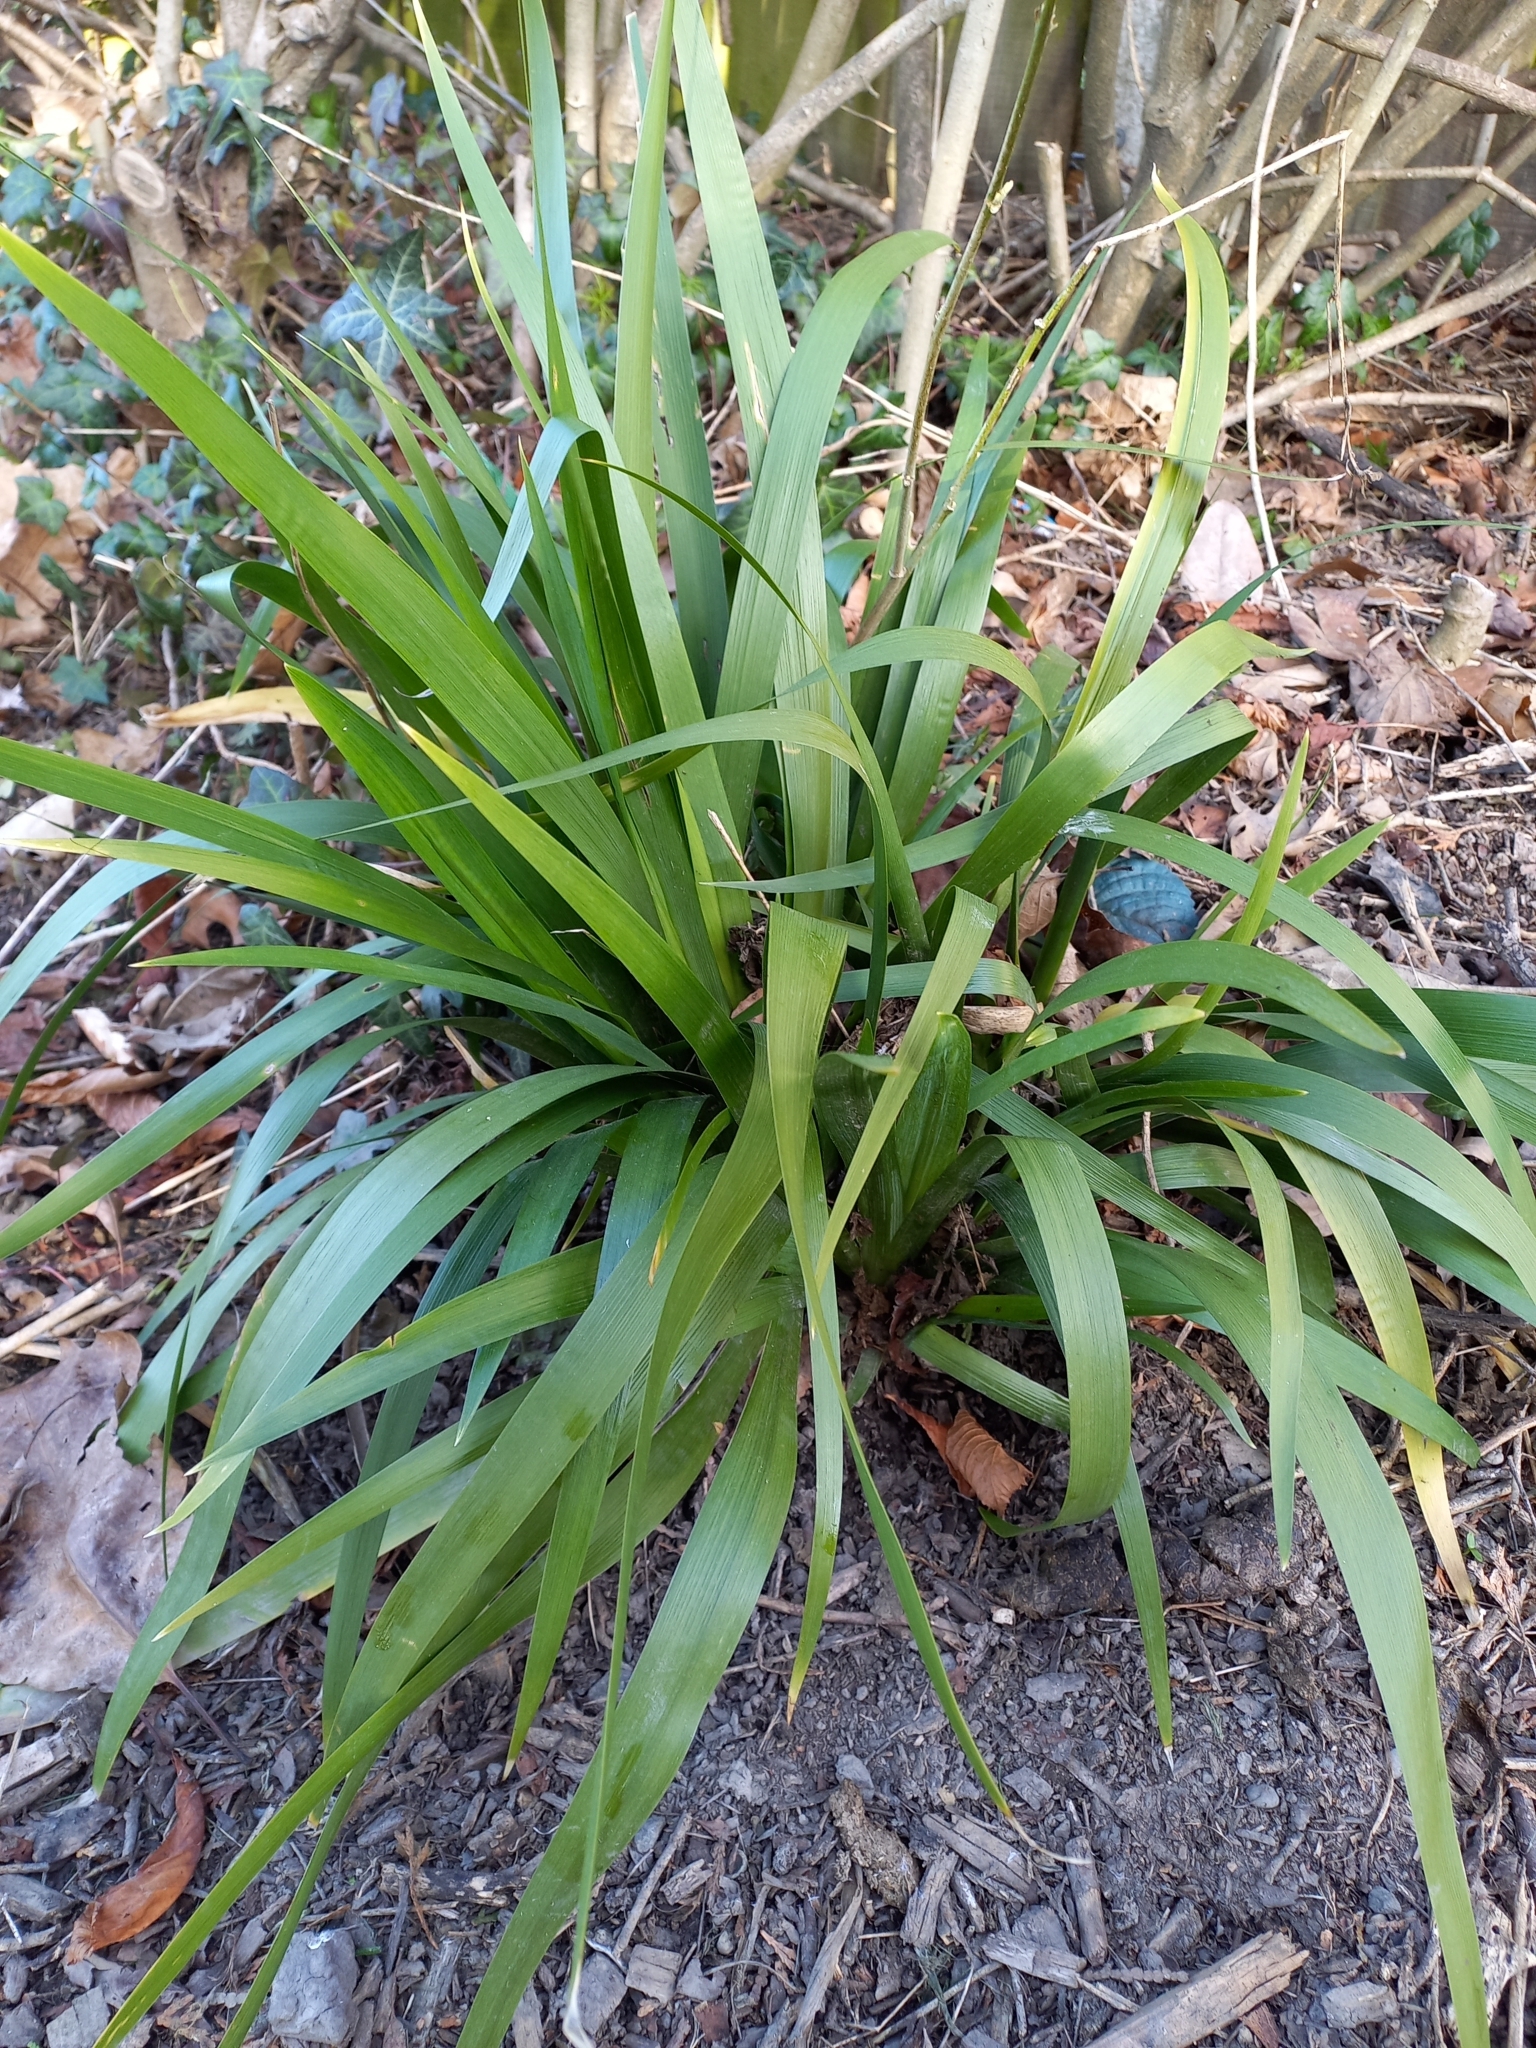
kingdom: Plantae
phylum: Tracheophyta
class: Liliopsida
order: Asparagales
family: Iridaceae
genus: Iris
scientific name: Iris foetidissima
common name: Stinking iris
